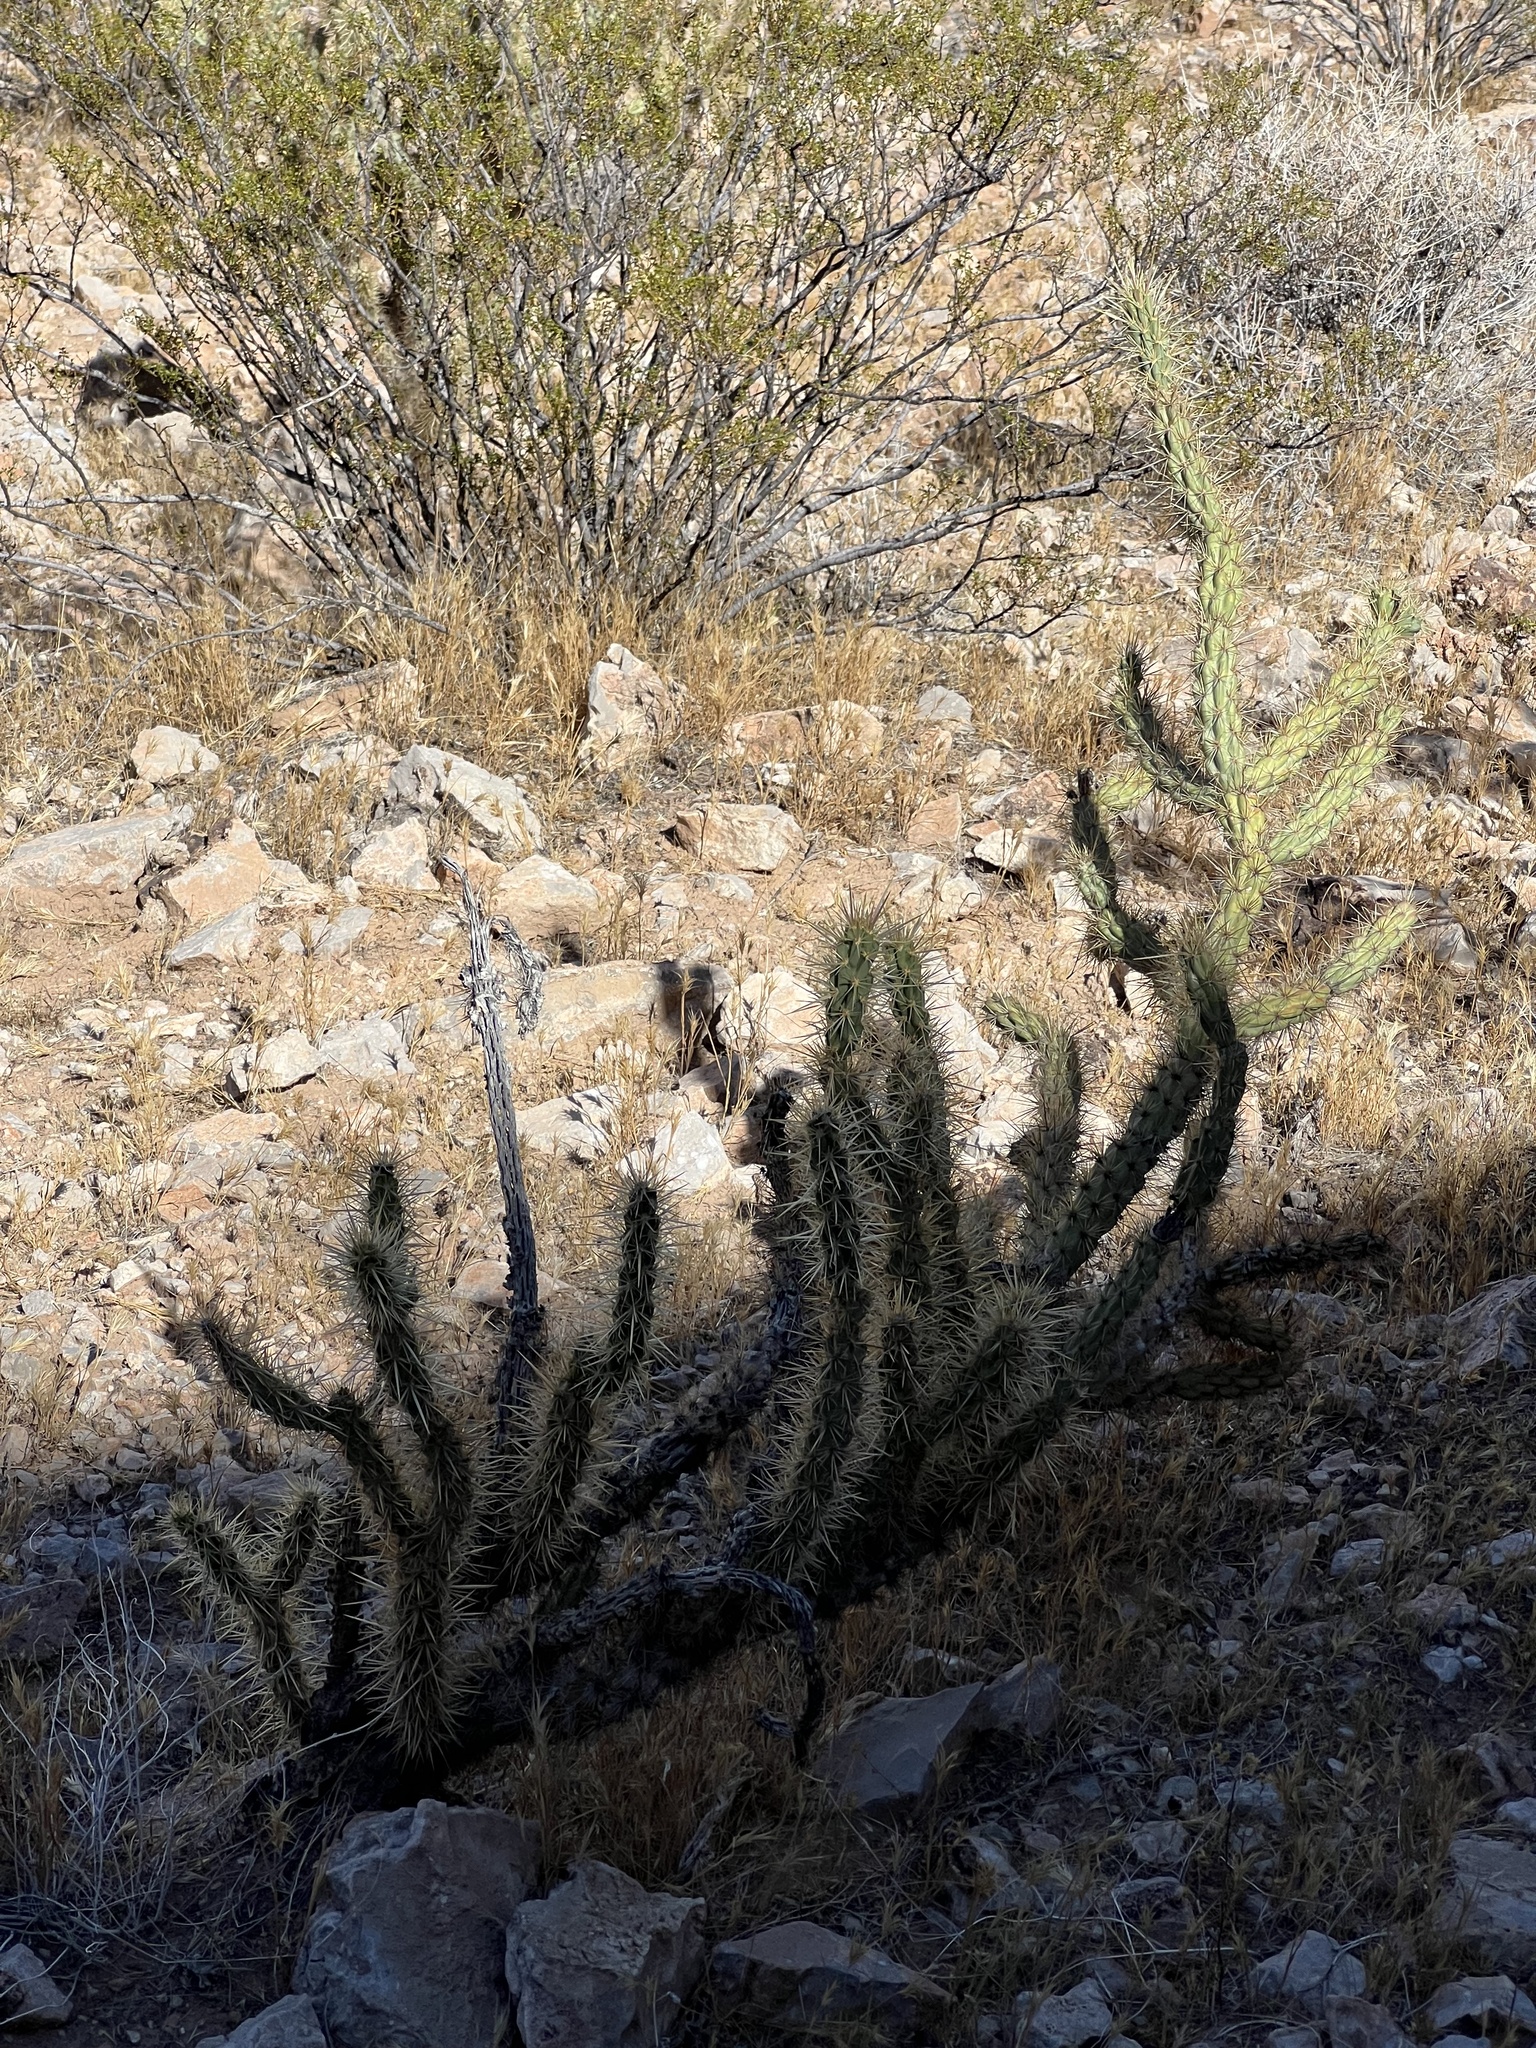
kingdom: Plantae
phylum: Tracheophyta
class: Magnoliopsida
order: Caryophyllales
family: Cactaceae
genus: Cylindropuntia
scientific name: Cylindropuntia acanthocarpa
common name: Buckhorn cholla
